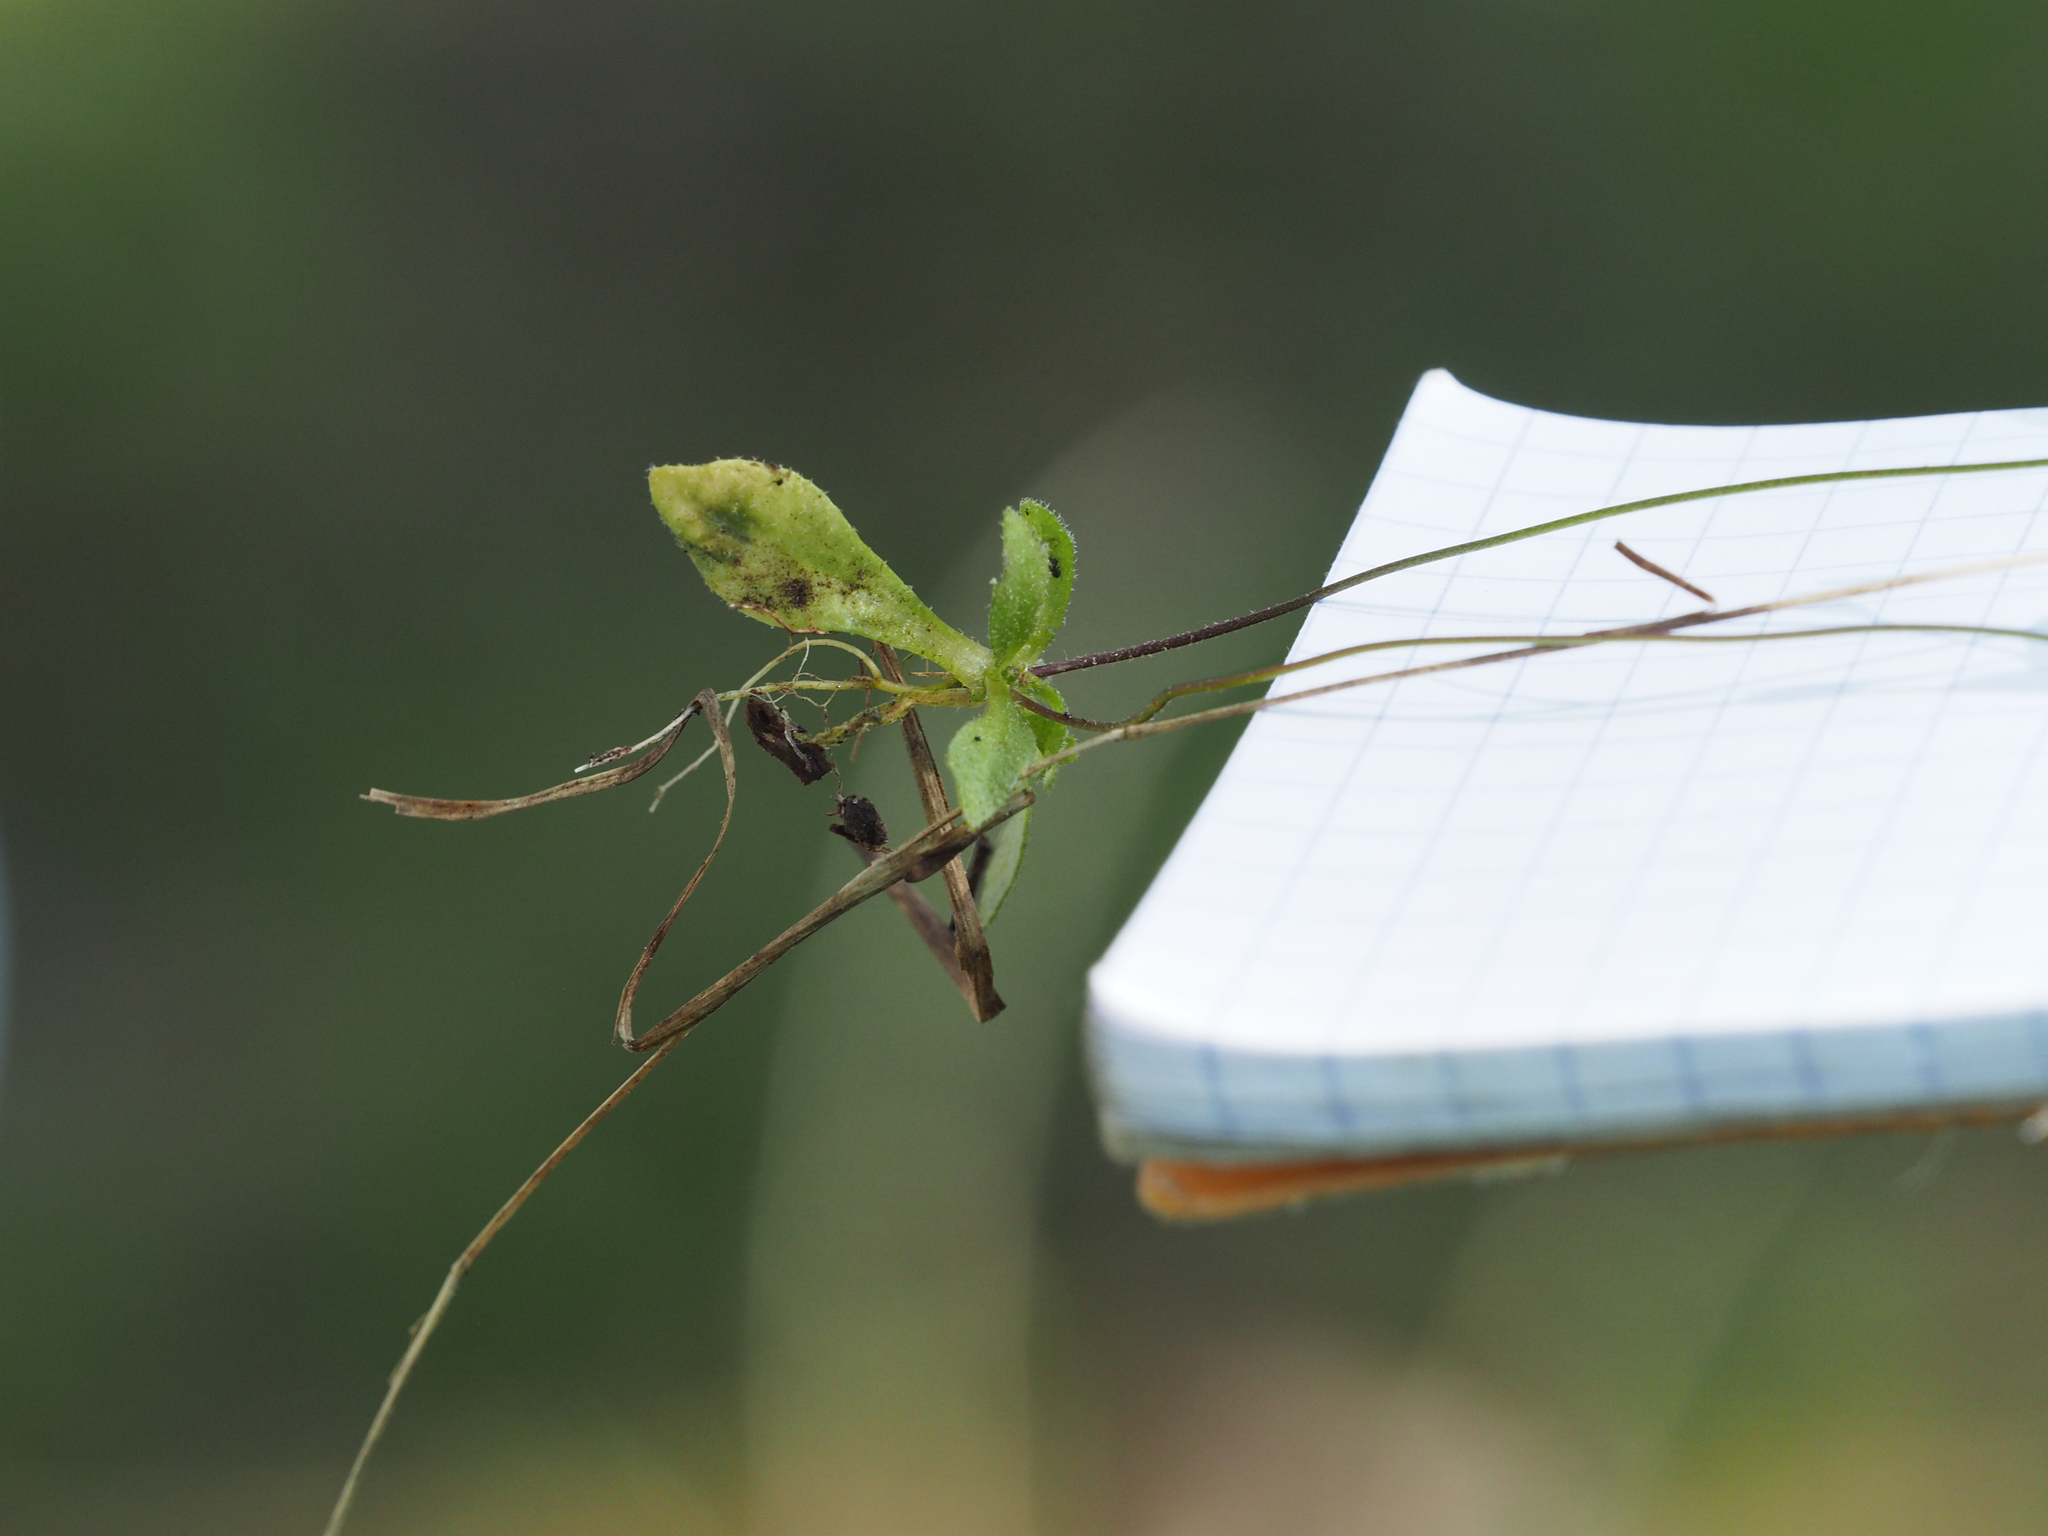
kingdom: Plantae
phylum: Tracheophyta
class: Magnoliopsida
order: Brassicales
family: Brassicaceae
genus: Draba
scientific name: Draba verna
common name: Spring draba
